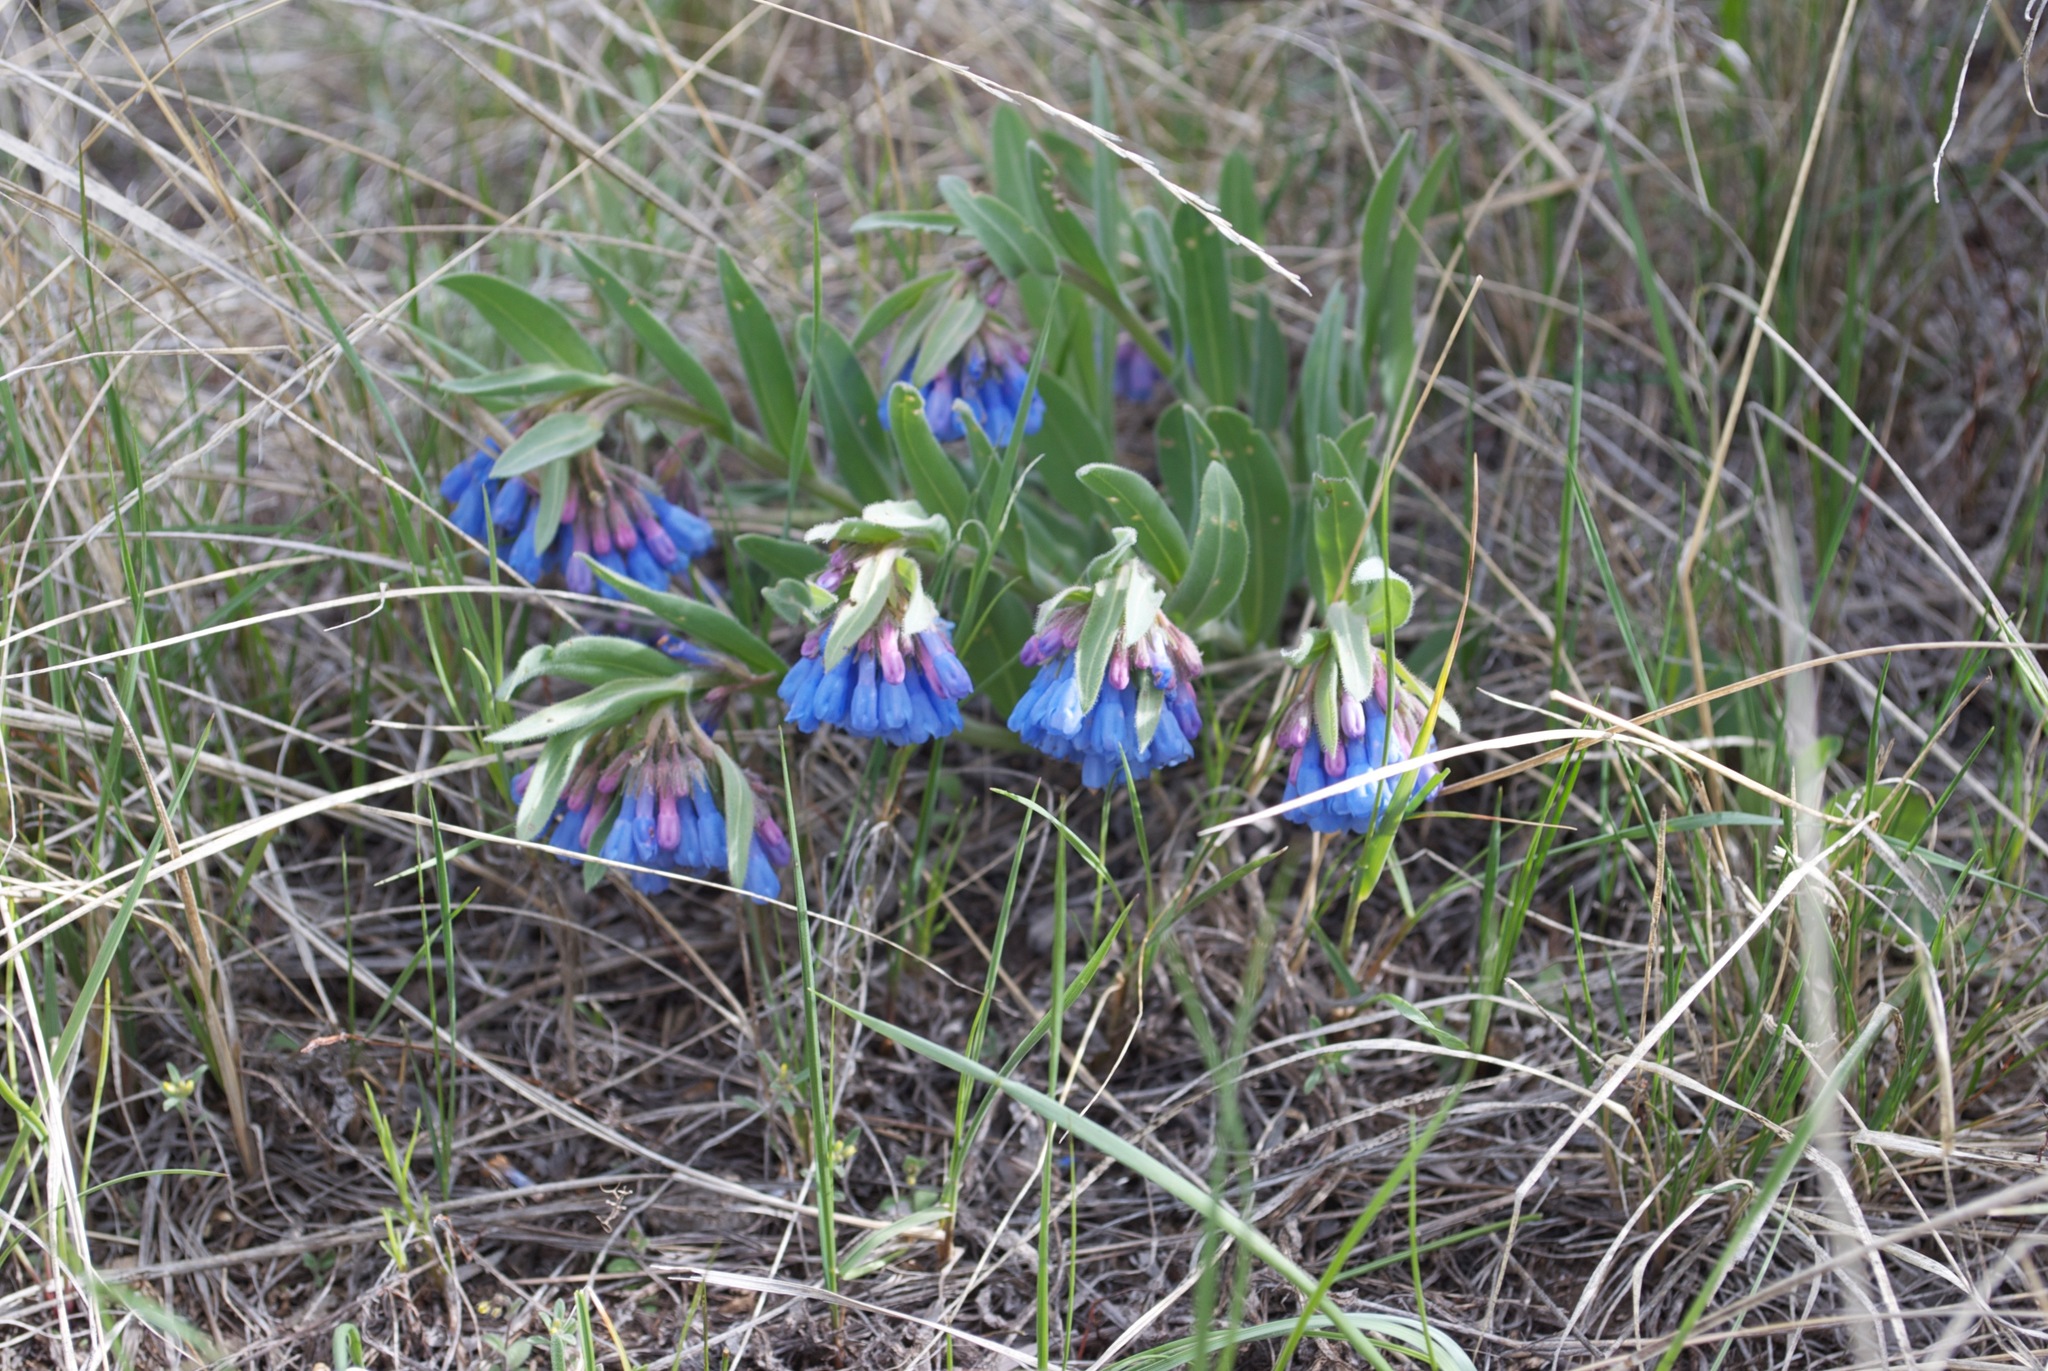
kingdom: Plantae
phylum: Tracheophyta
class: Magnoliopsida
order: Boraginales
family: Boraginaceae
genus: Mertensia
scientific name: Mertensia oblongifolia
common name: Sagebrush bluebells
